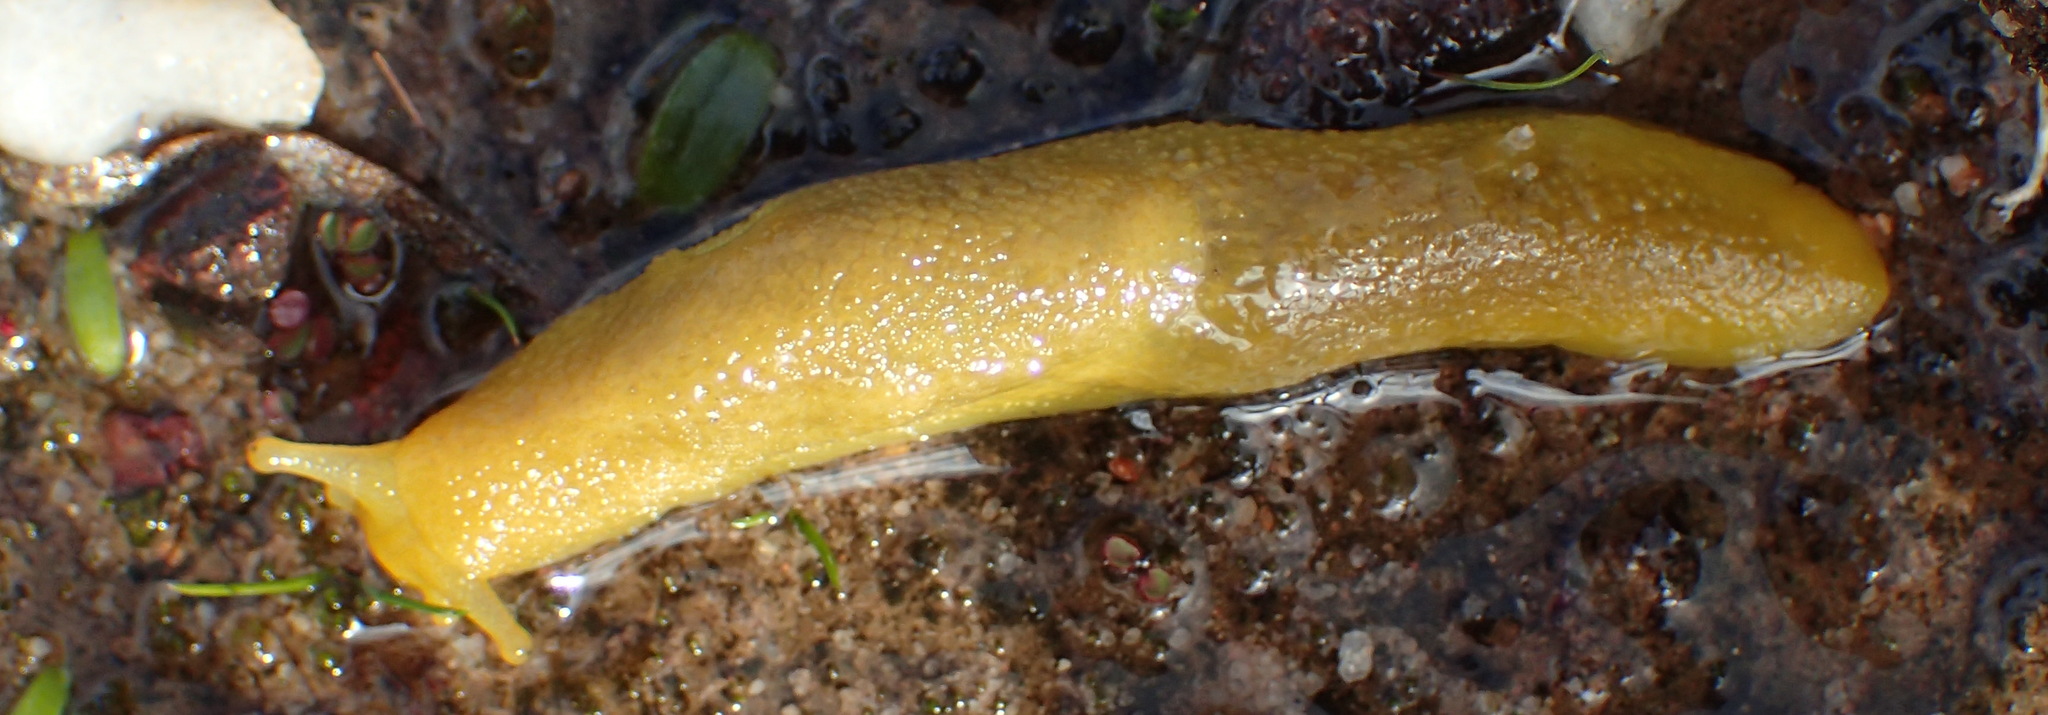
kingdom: Animalia
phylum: Mollusca
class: Gastropoda
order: Stylommatophora
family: Oopeltidae
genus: Oopelta
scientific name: Oopelta granulosa
